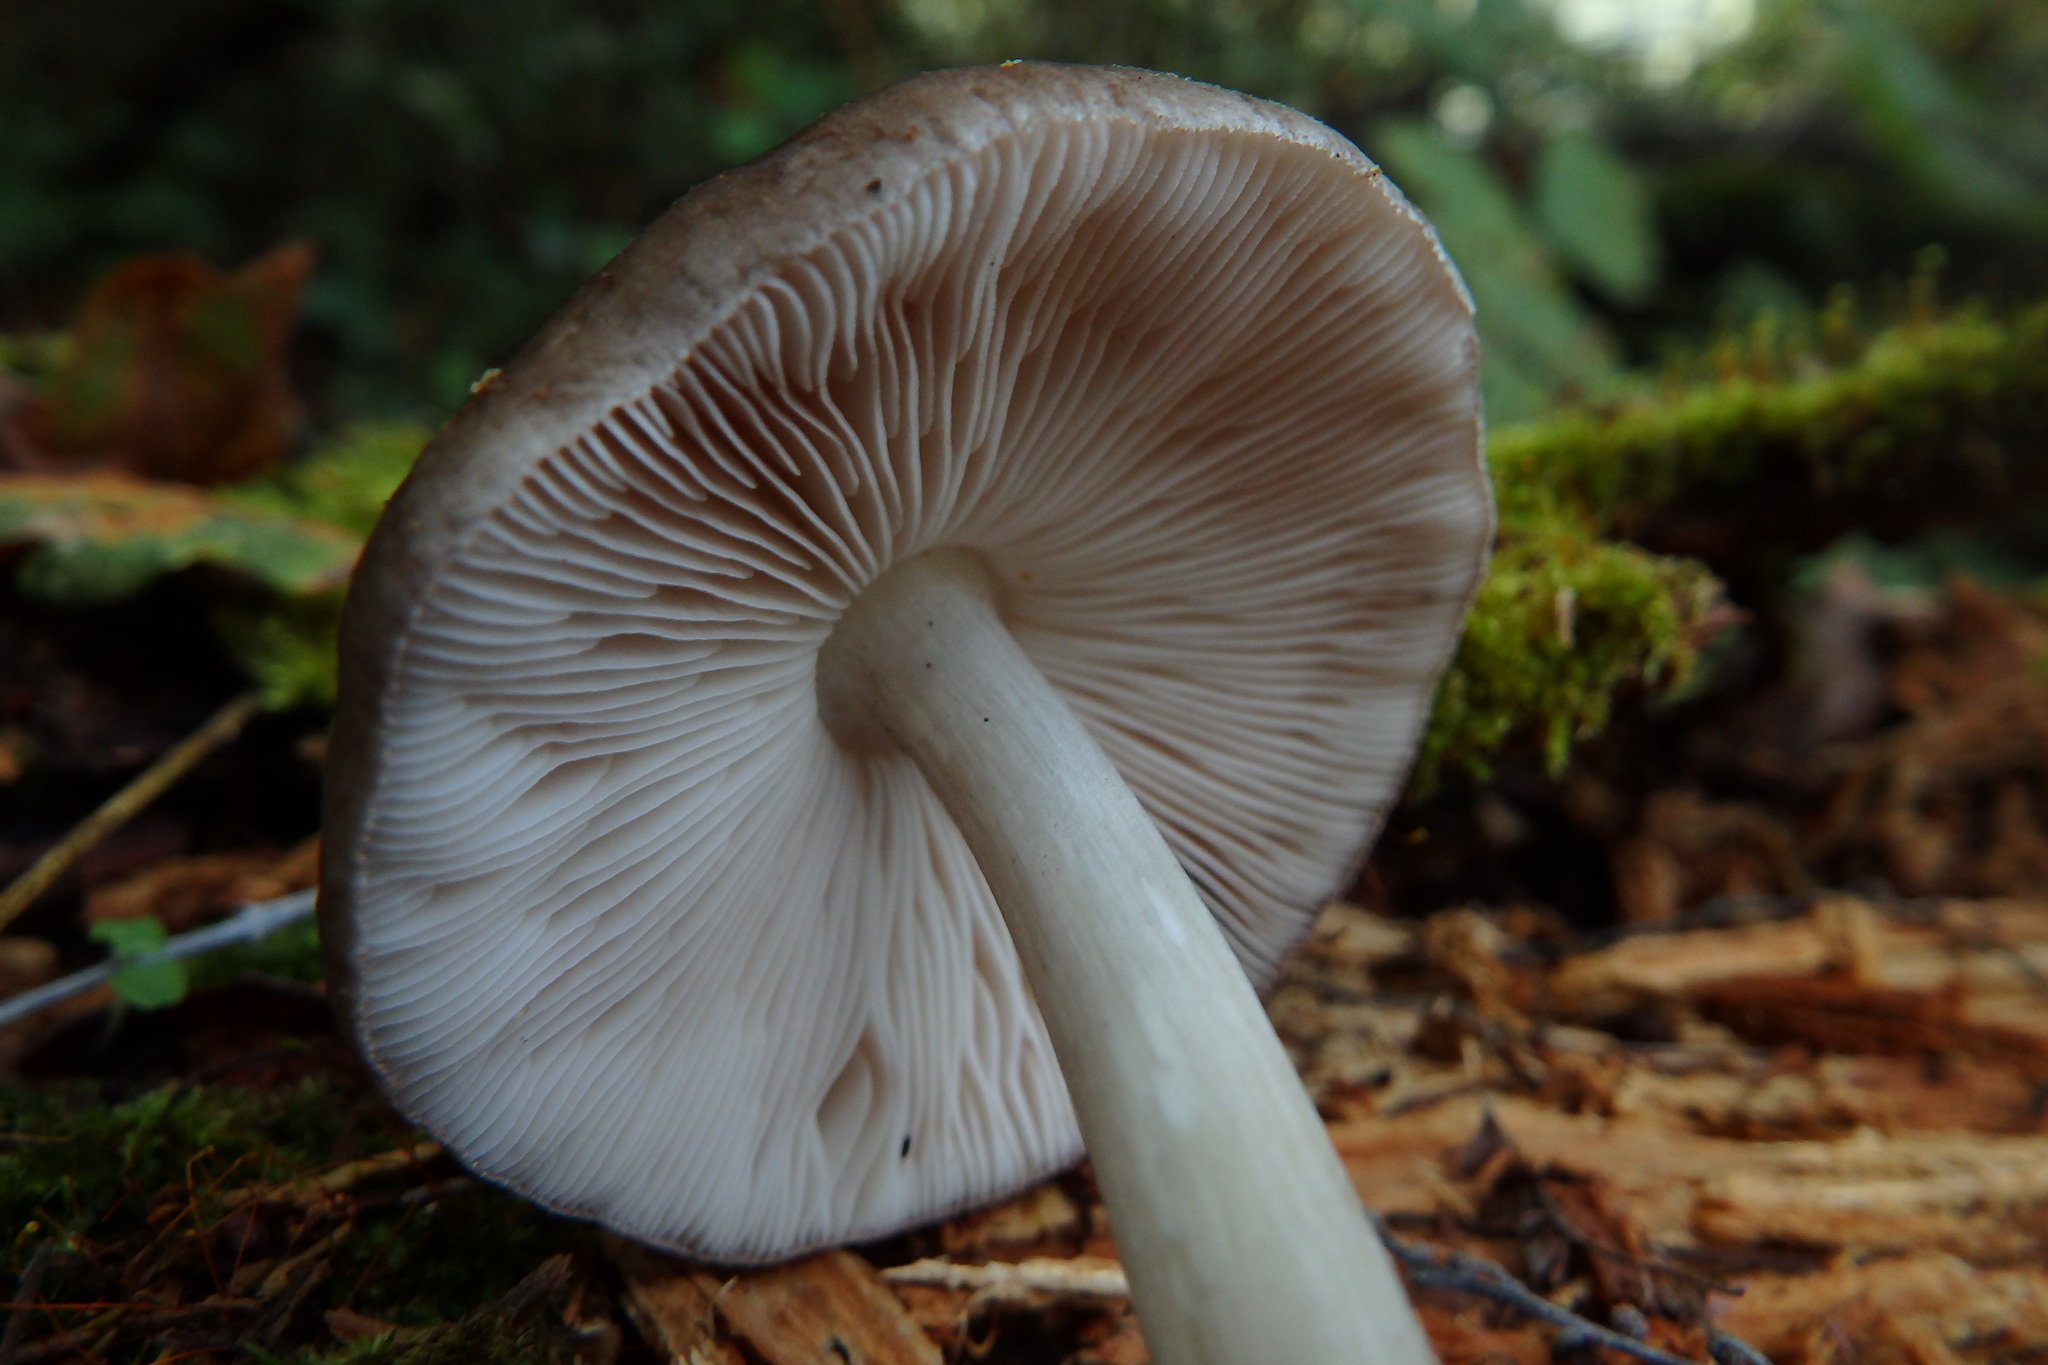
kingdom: Fungi
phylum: Basidiomycota
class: Agaricomycetes
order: Agaricales
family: Pluteaceae
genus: Pluteus
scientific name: Pluteus cervinus
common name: Deer shield
